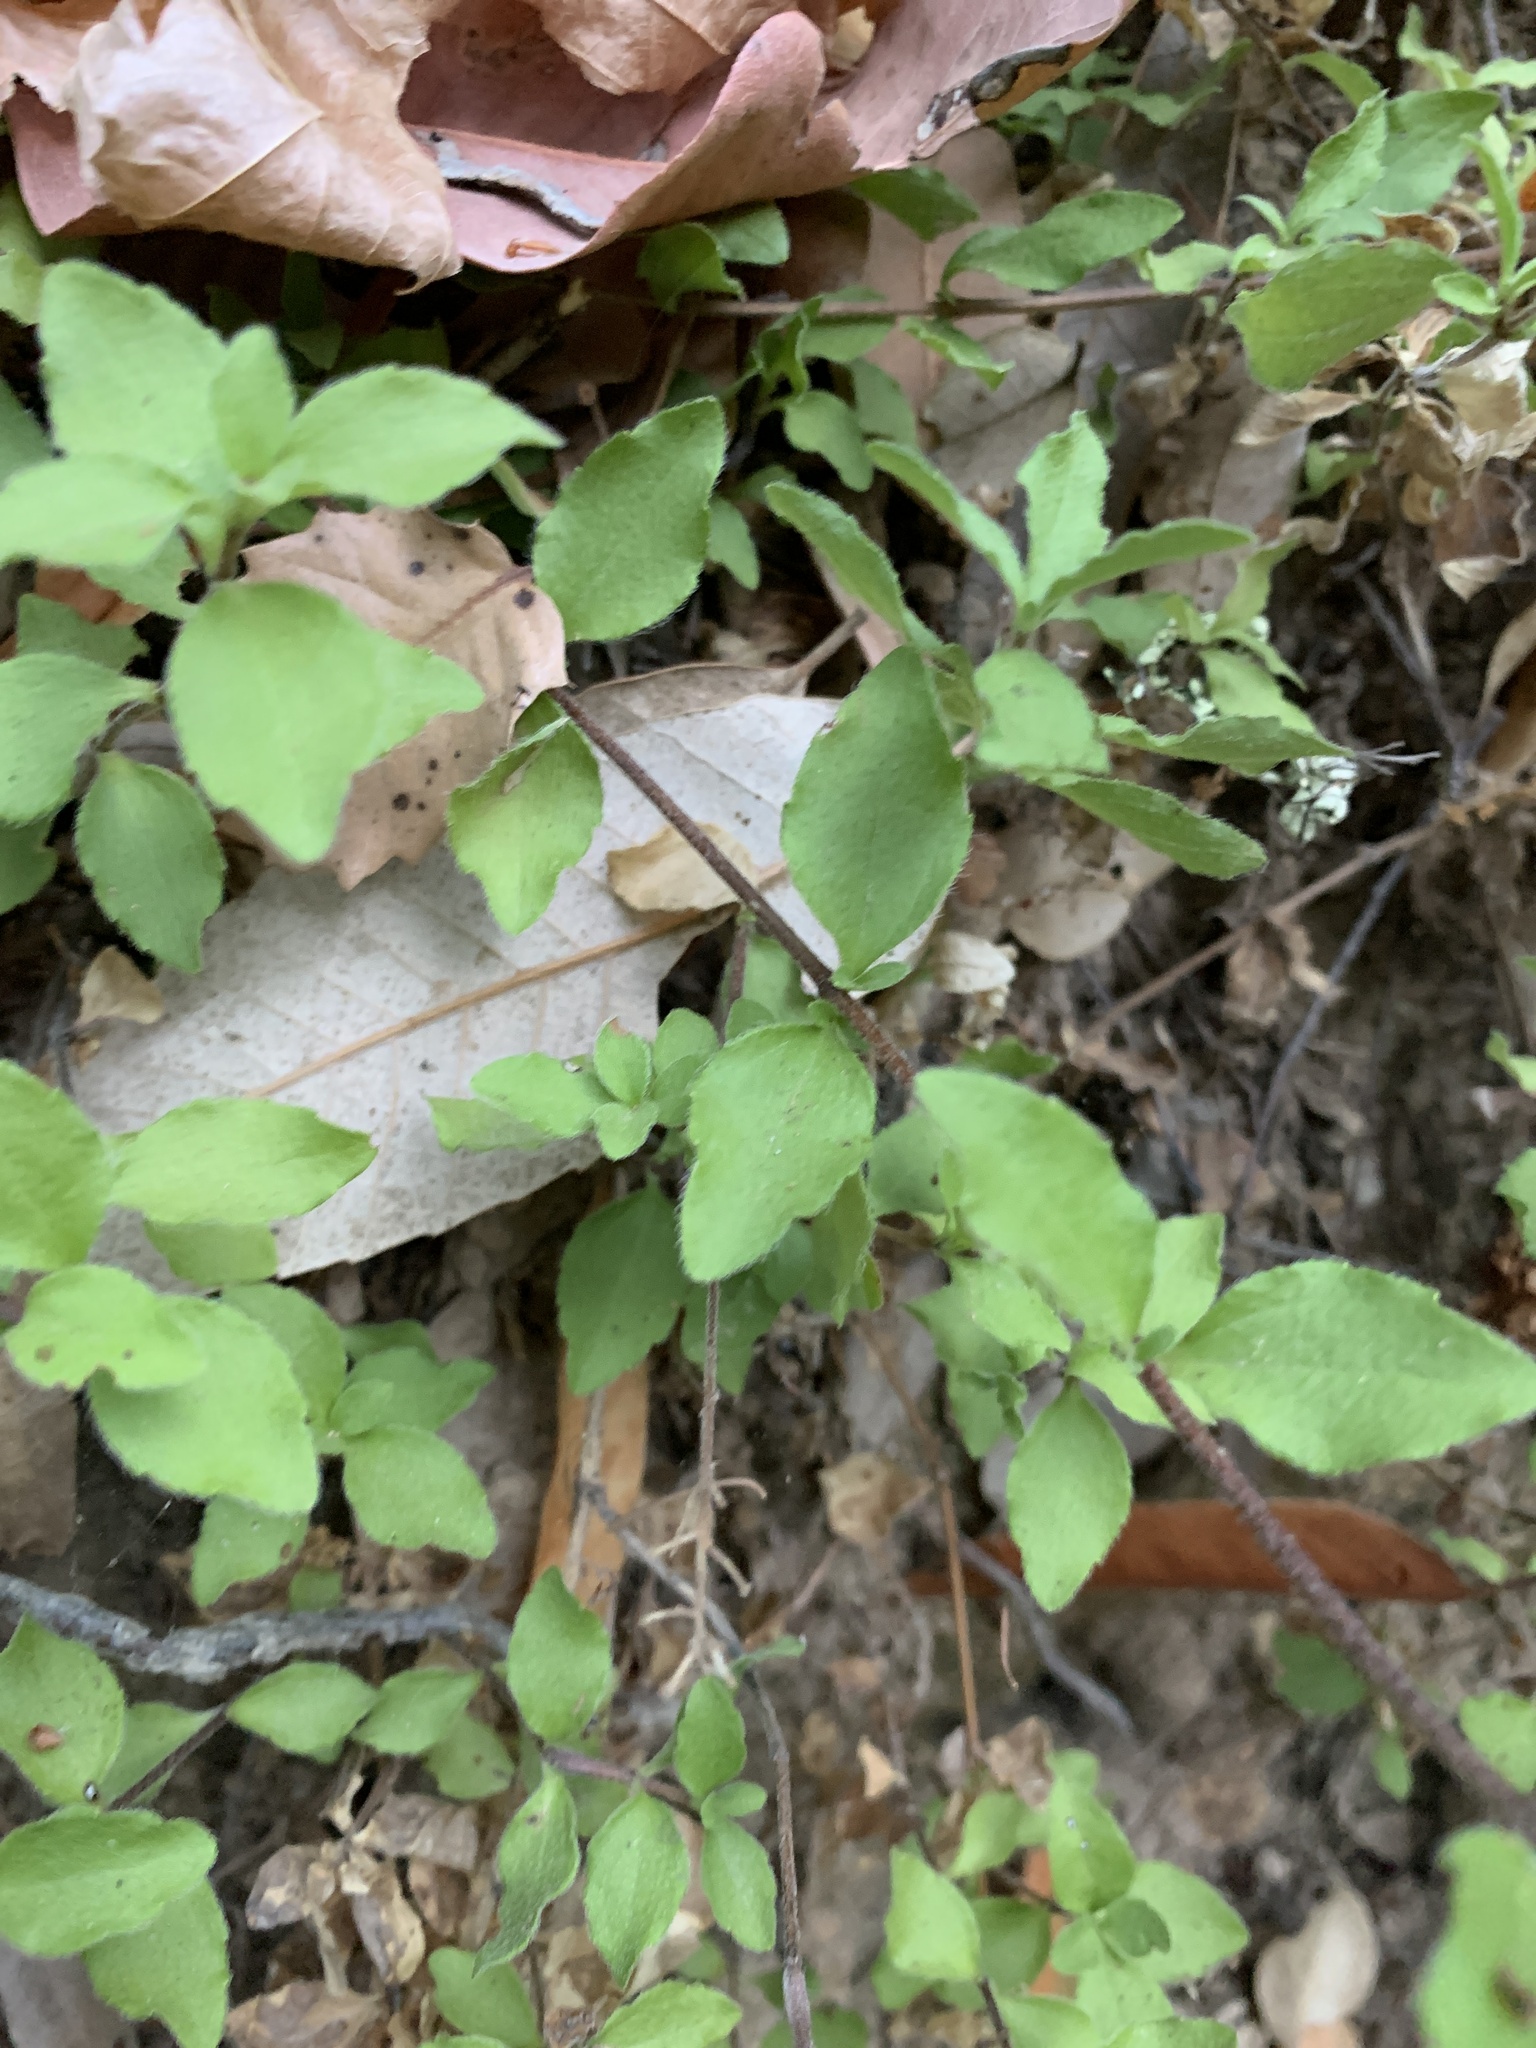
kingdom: Plantae
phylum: Tracheophyta
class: Magnoliopsida
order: Cornales
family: Hydrangeaceae
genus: Whipplea
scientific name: Whipplea modesta
